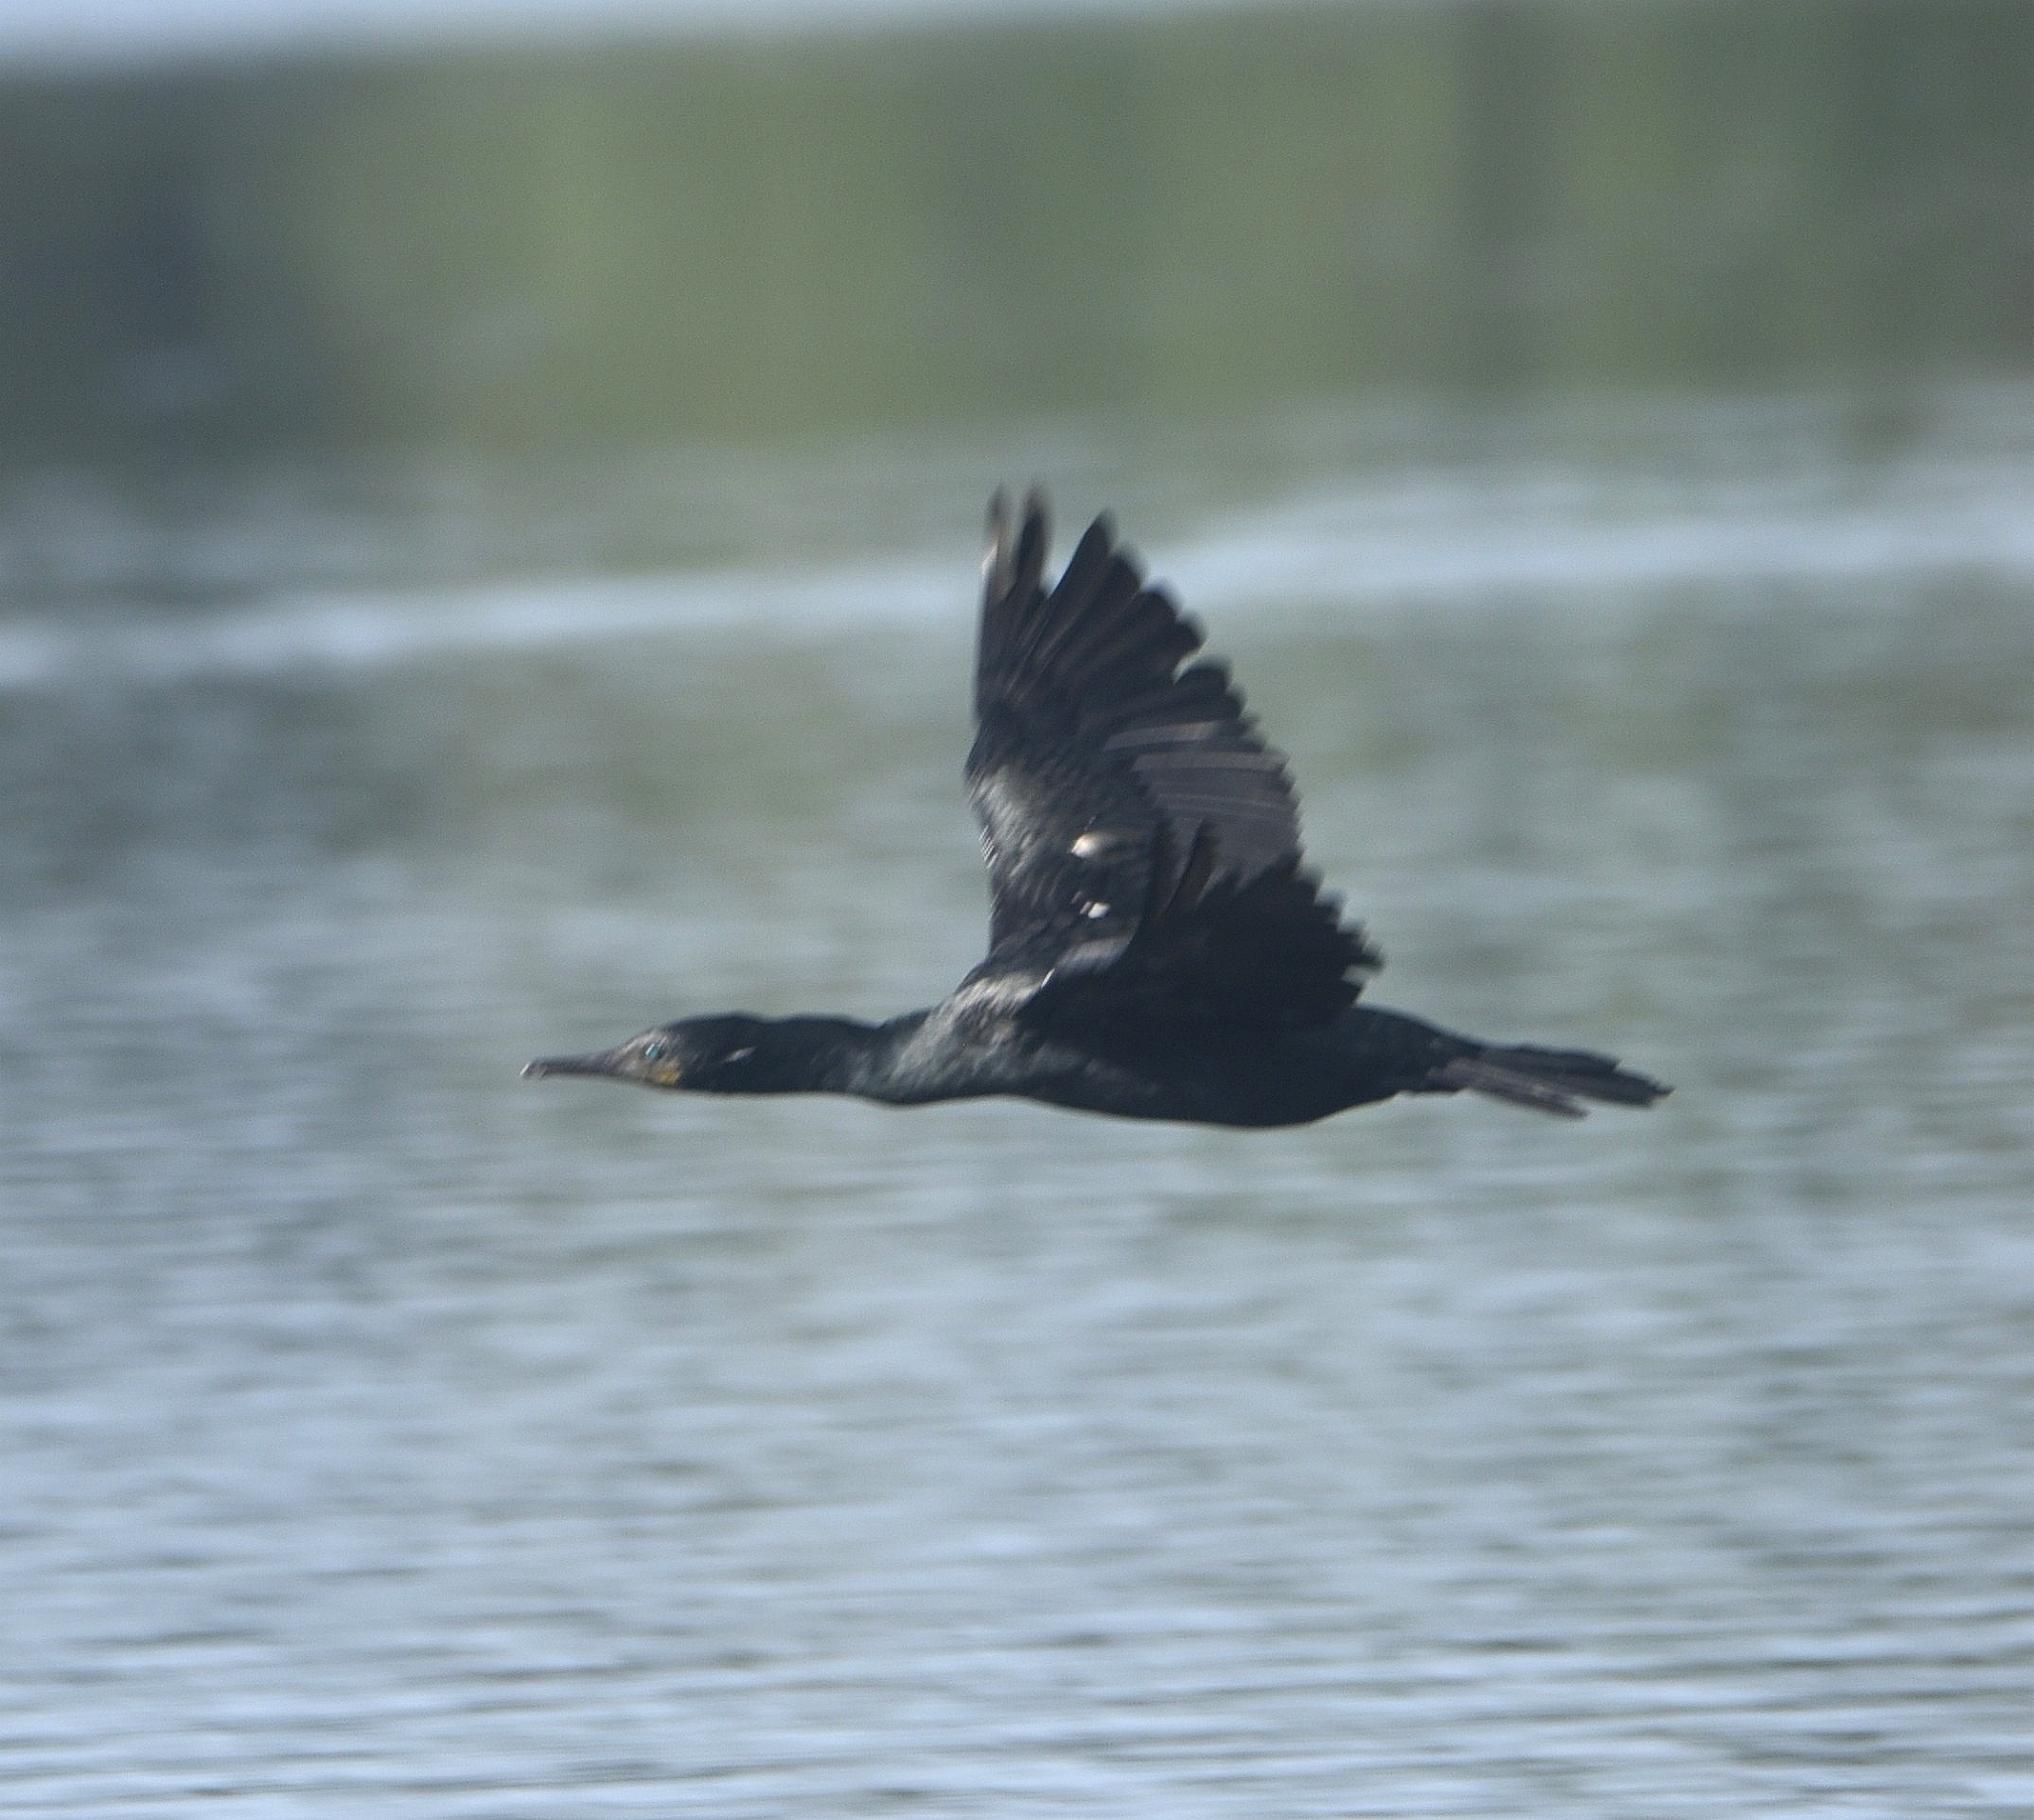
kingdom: Animalia
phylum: Chordata
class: Aves
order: Suliformes
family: Phalacrocoracidae
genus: Phalacrocorax
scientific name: Phalacrocorax fuscicollis
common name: Indian cormorant
